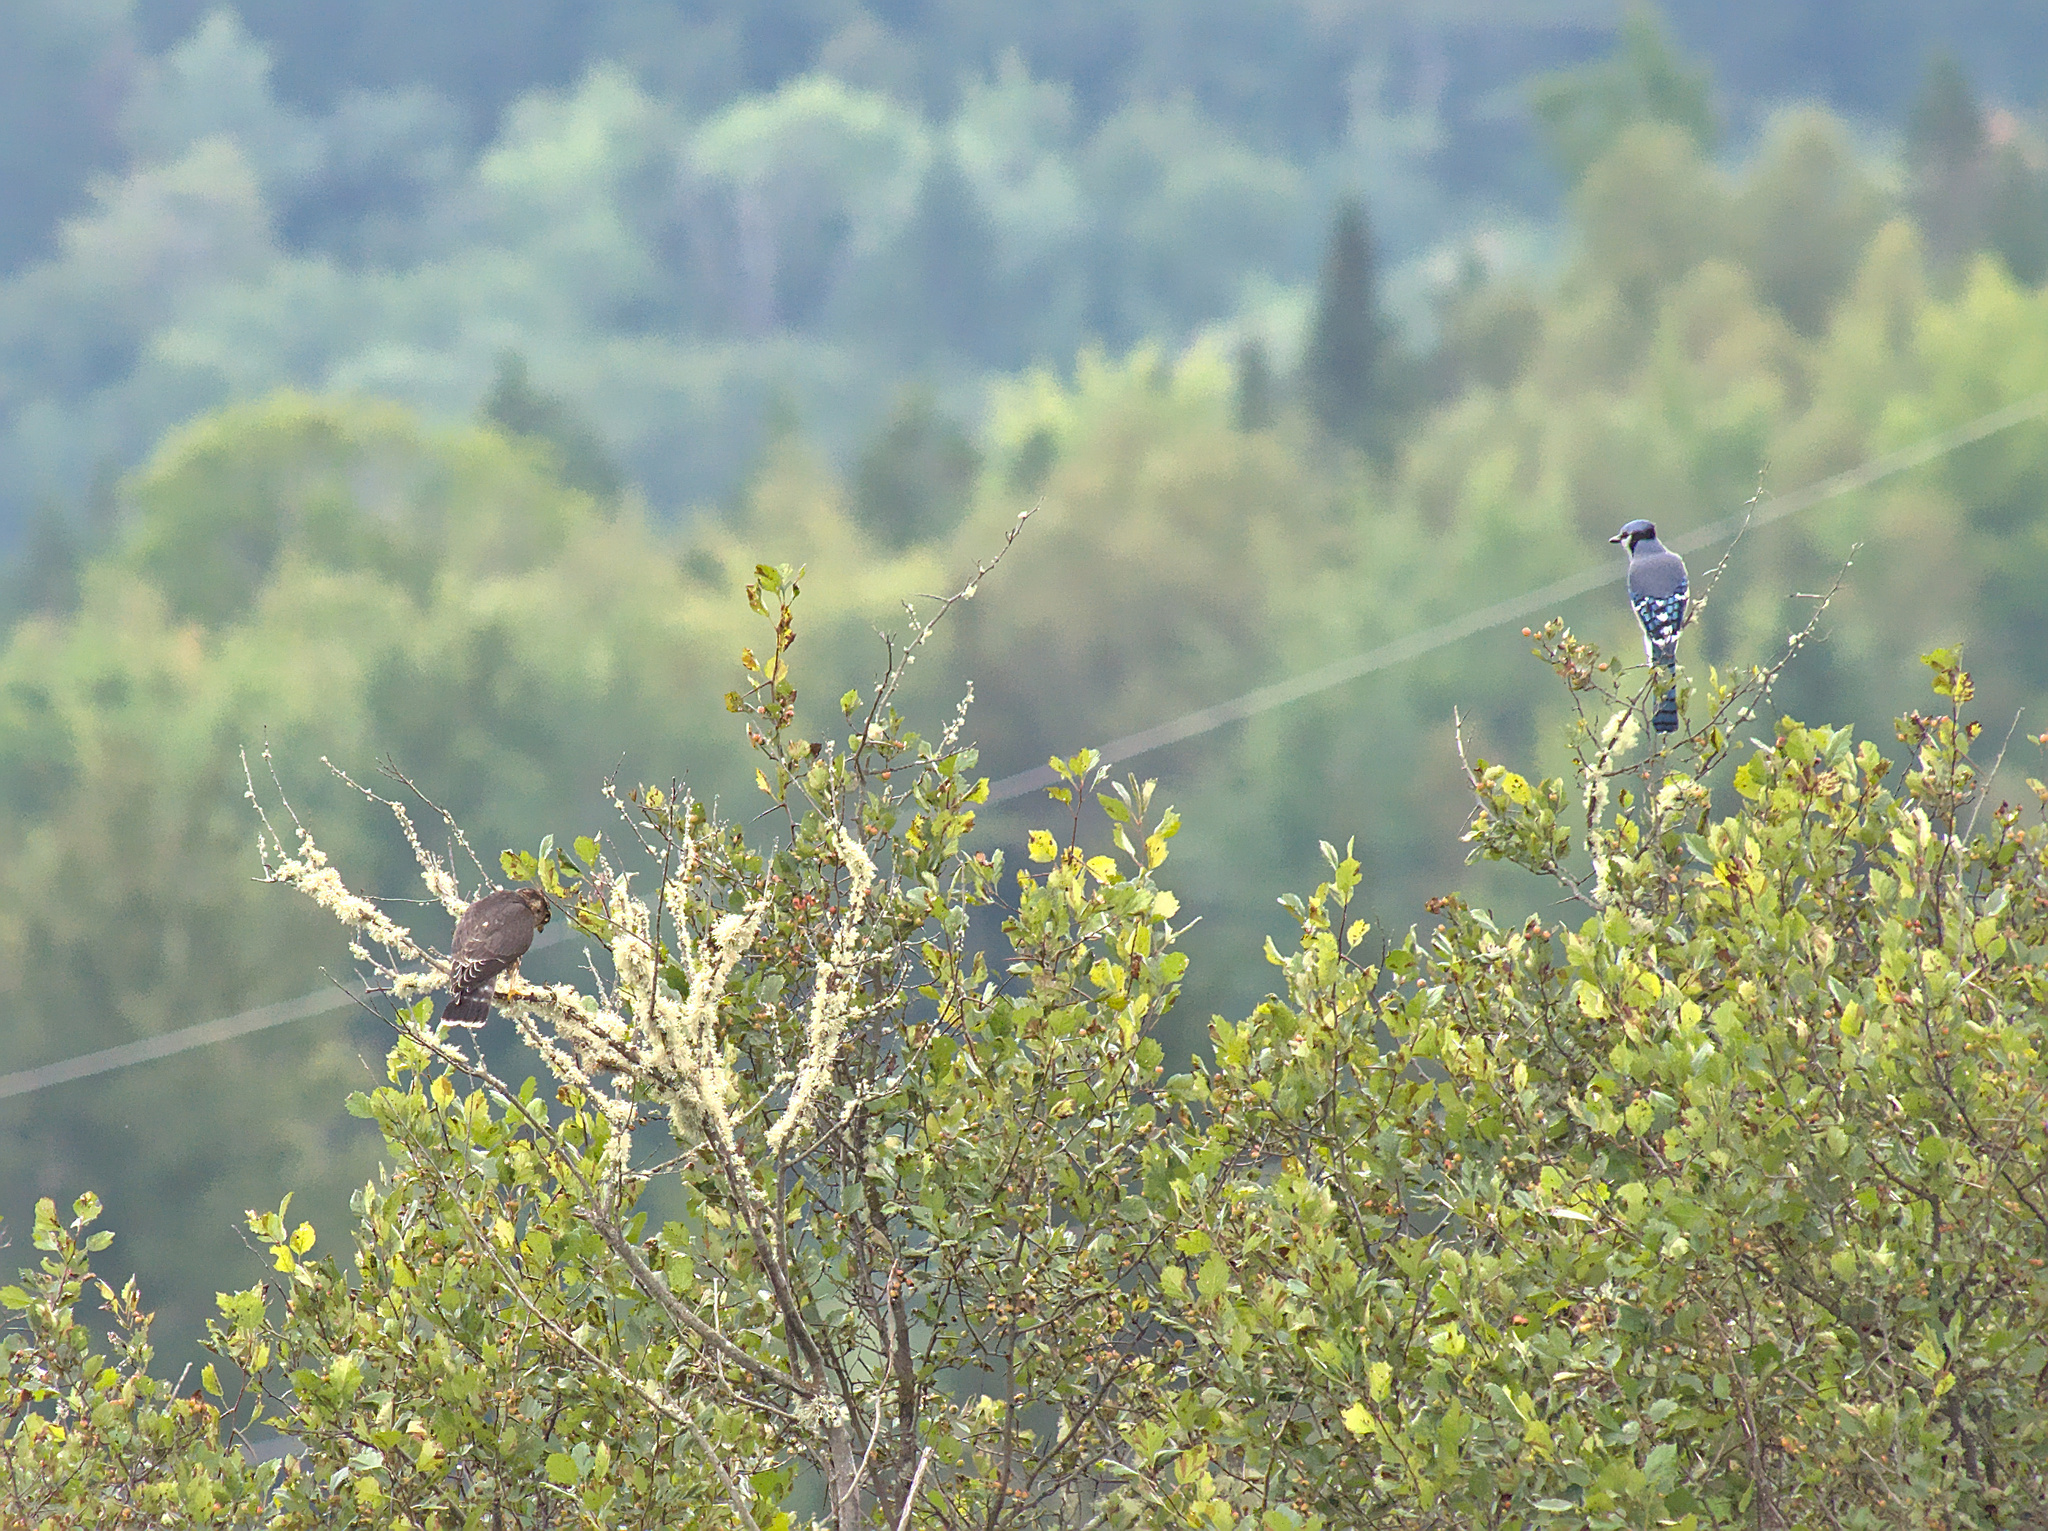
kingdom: Animalia
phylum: Chordata
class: Aves
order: Passeriformes
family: Corvidae
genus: Cyanocitta
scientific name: Cyanocitta cristata
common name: Blue jay
